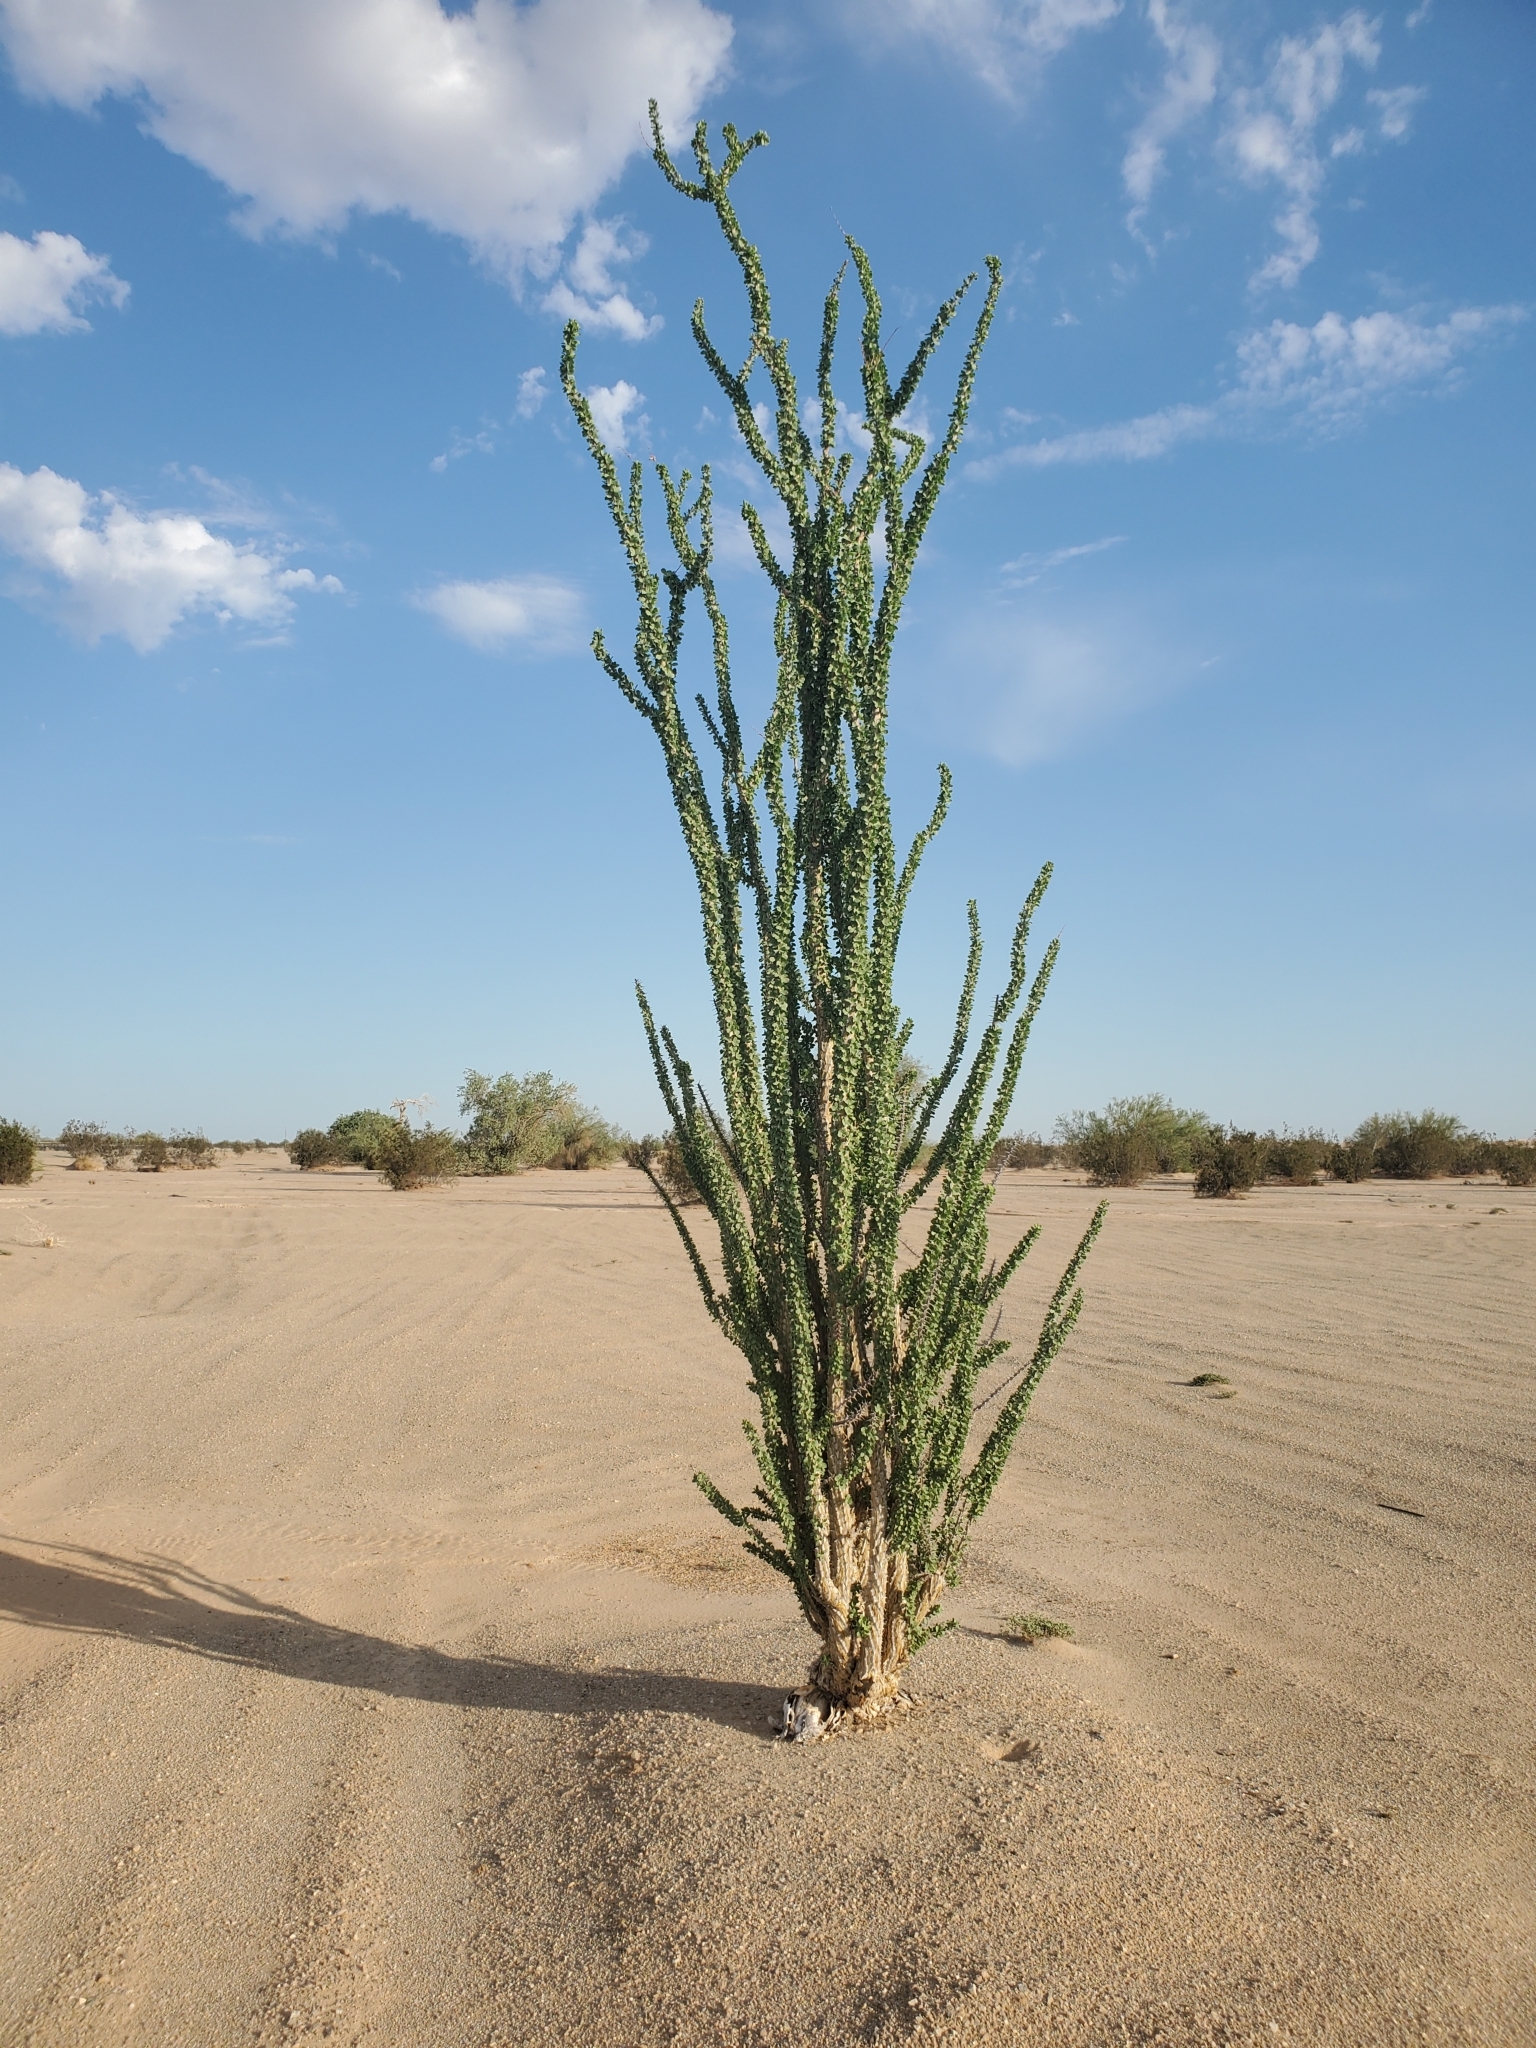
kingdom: Plantae
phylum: Tracheophyta
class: Magnoliopsida
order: Ericales
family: Fouquieriaceae
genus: Fouquieria
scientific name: Fouquieria splendens
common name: Vine-cactus
